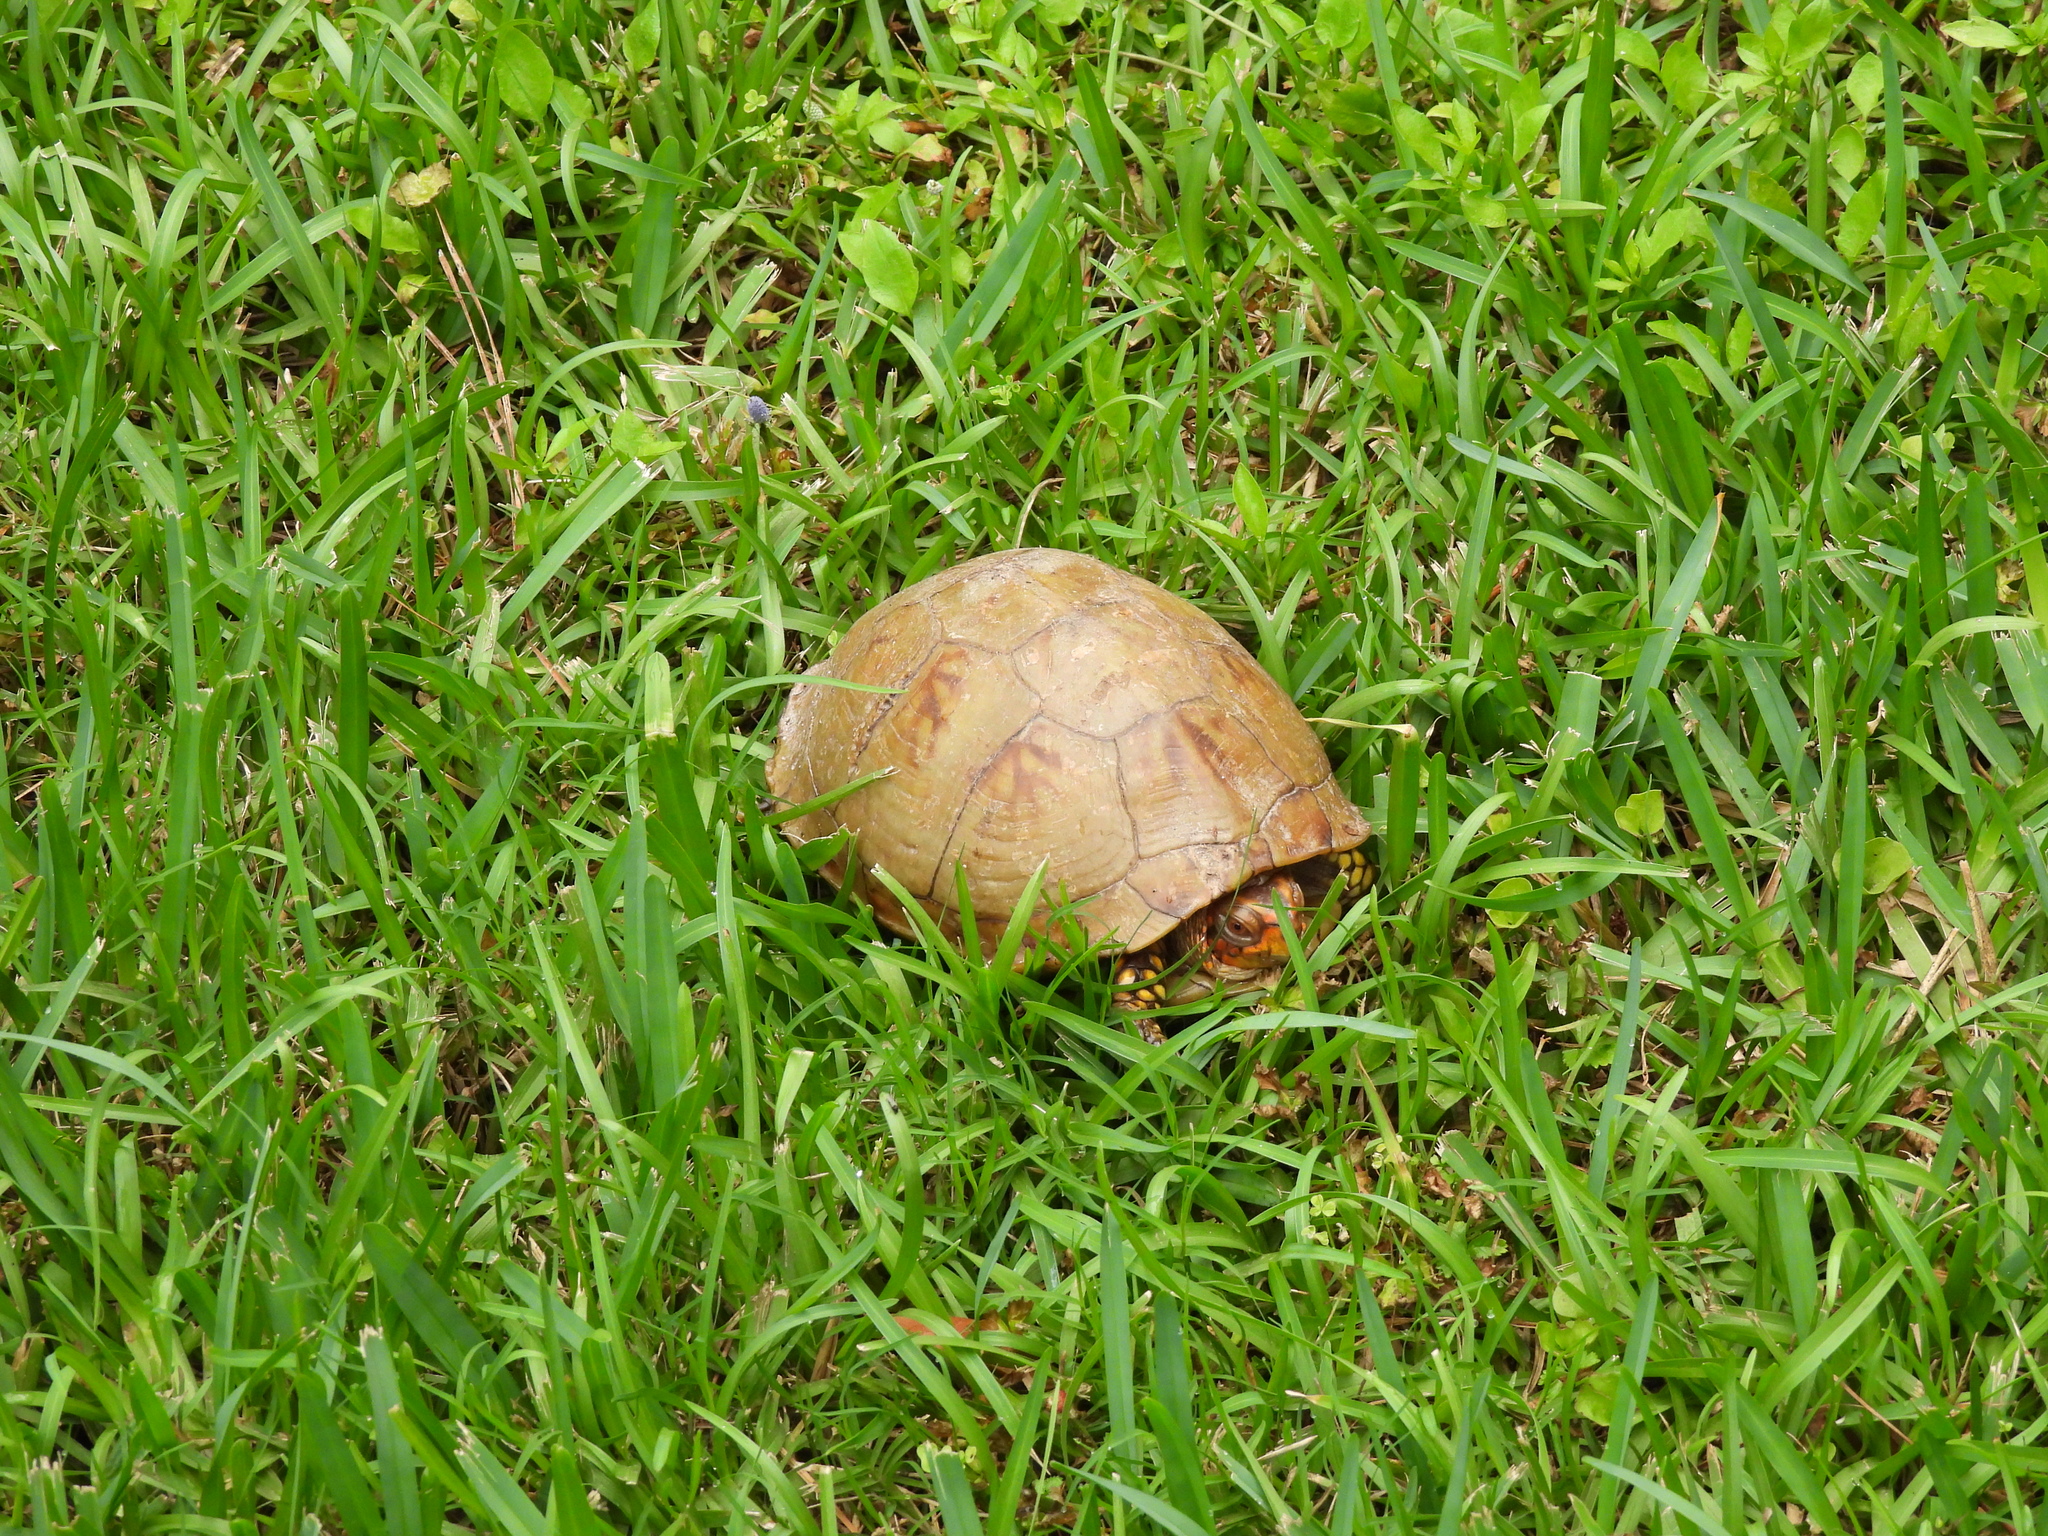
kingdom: Animalia
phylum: Chordata
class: Testudines
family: Emydidae
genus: Terrapene
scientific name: Terrapene carolina
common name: Common box turtle
